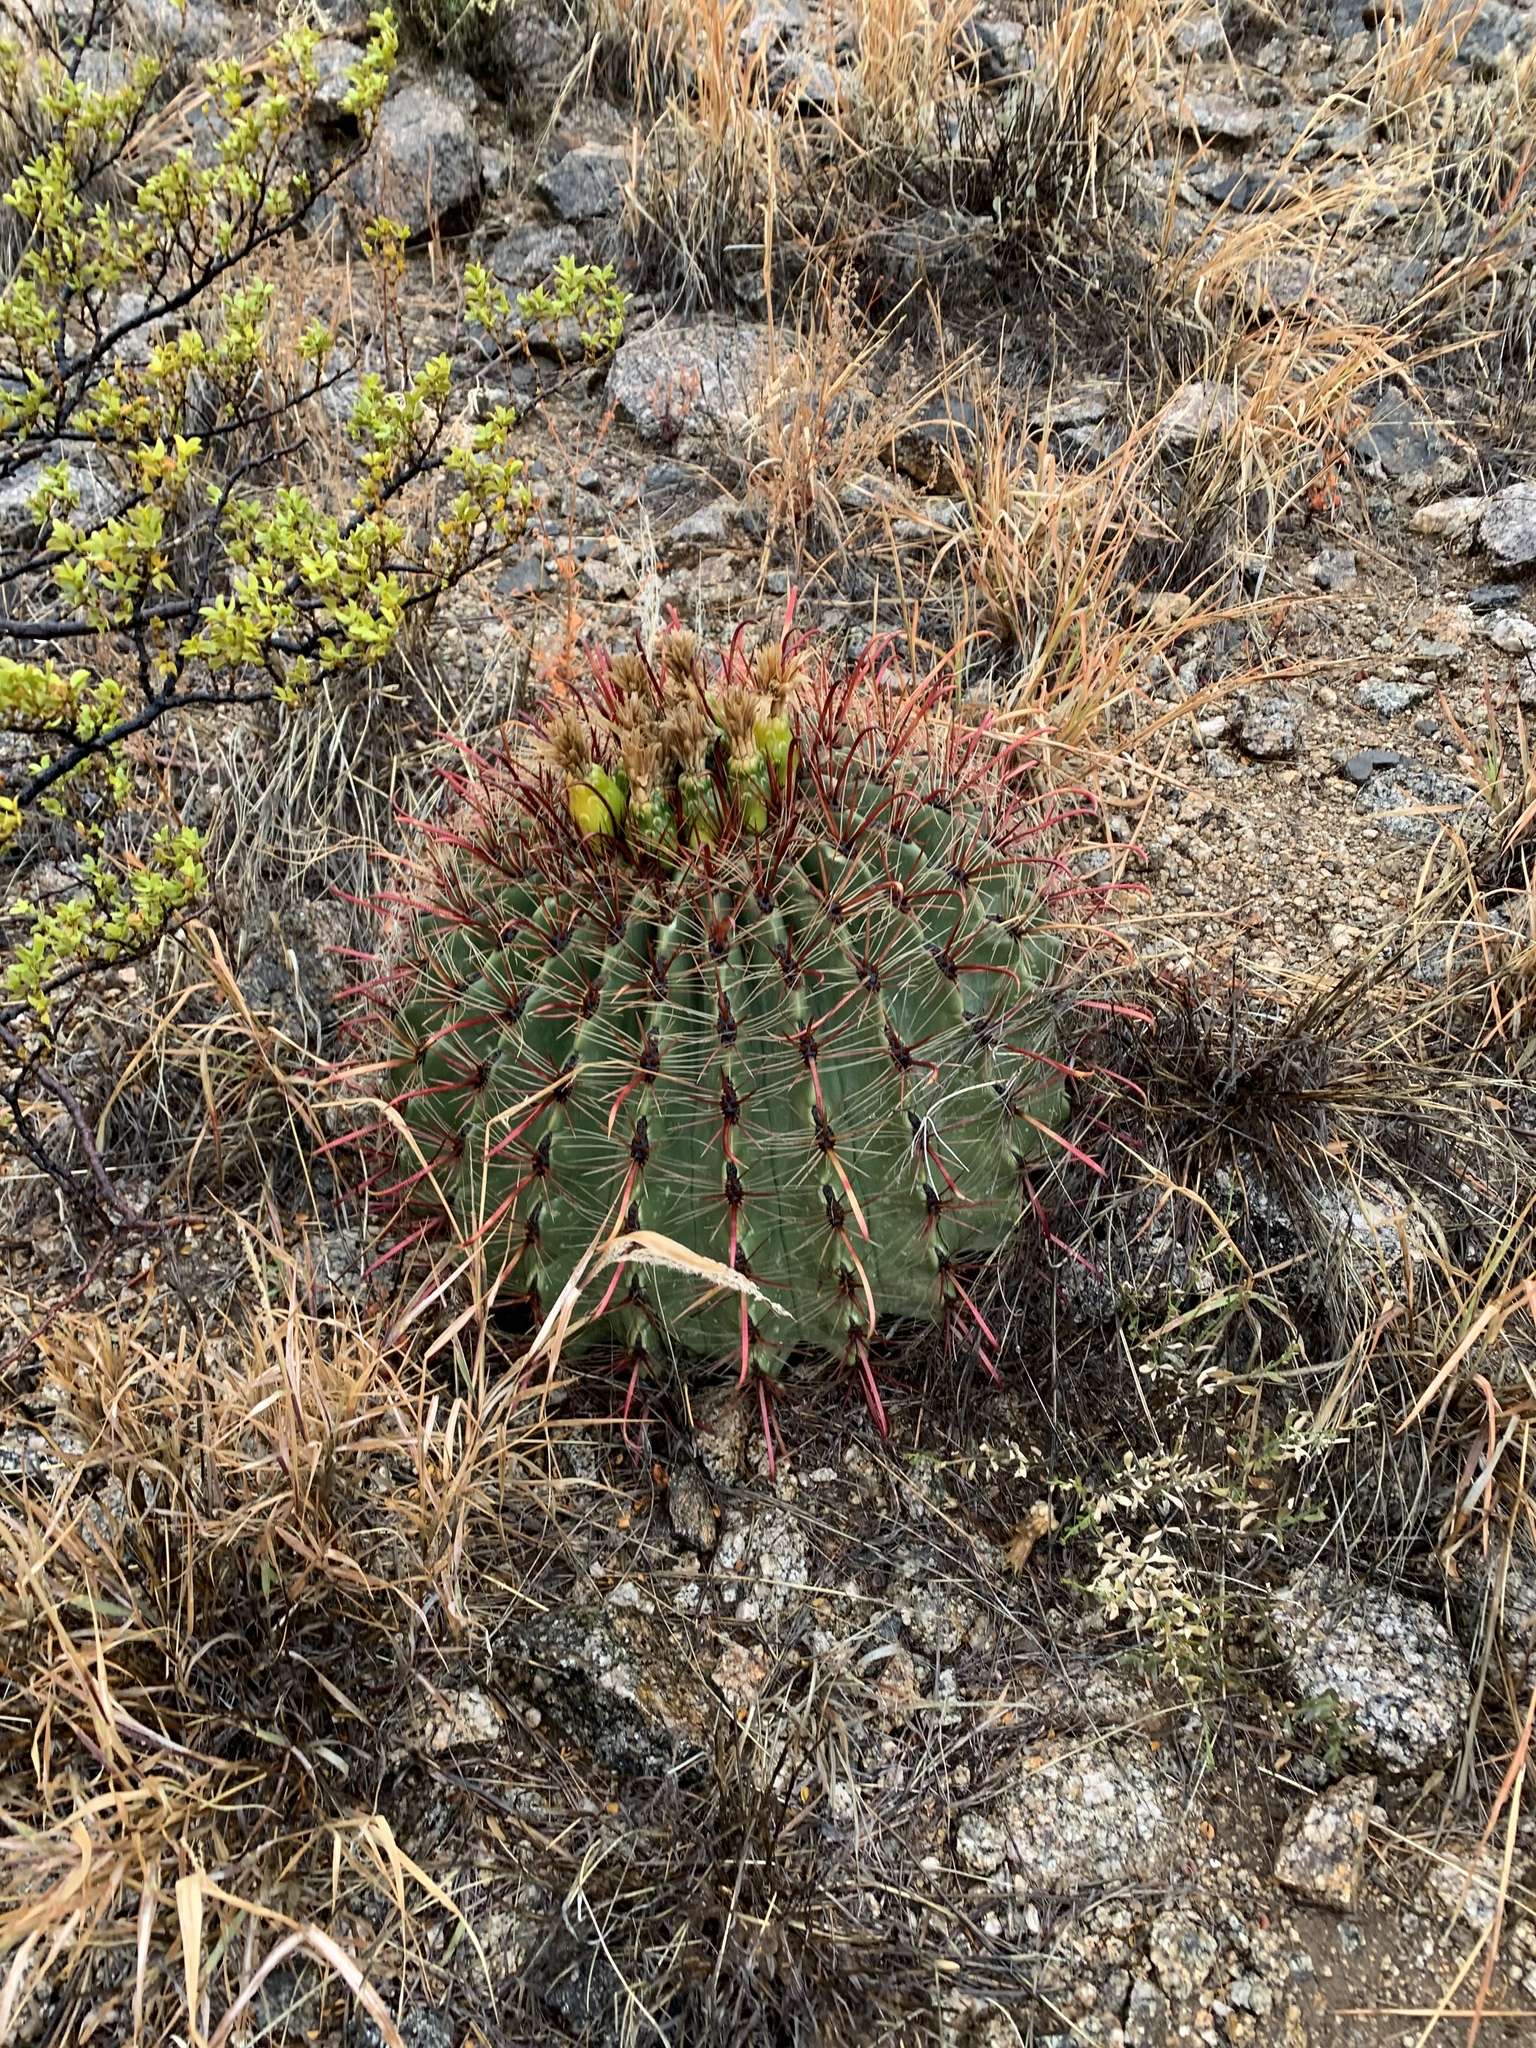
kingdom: Plantae
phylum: Tracheophyta
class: Magnoliopsida
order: Caryophyllales
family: Cactaceae
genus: Ferocactus
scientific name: Ferocactus wislizeni
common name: Candy barrel cactus
